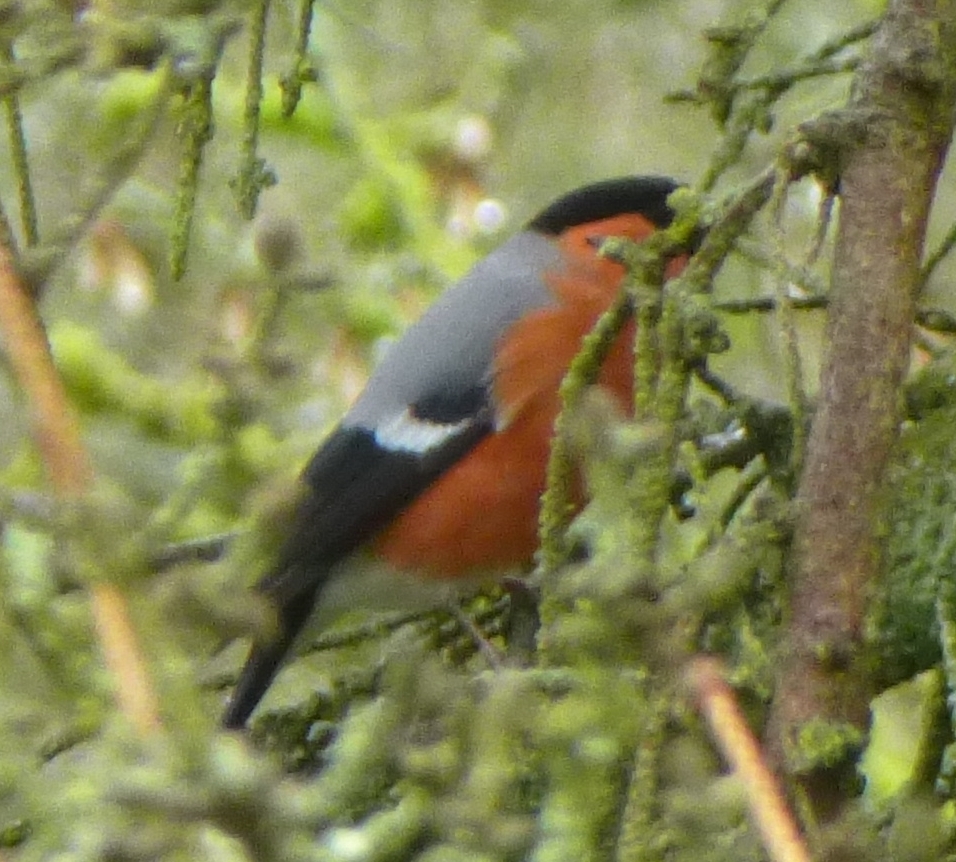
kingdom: Animalia
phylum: Chordata
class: Aves
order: Passeriformes
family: Fringillidae
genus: Pyrrhula
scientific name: Pyrrhula pyrrhula
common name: Eurasian bullfinch
